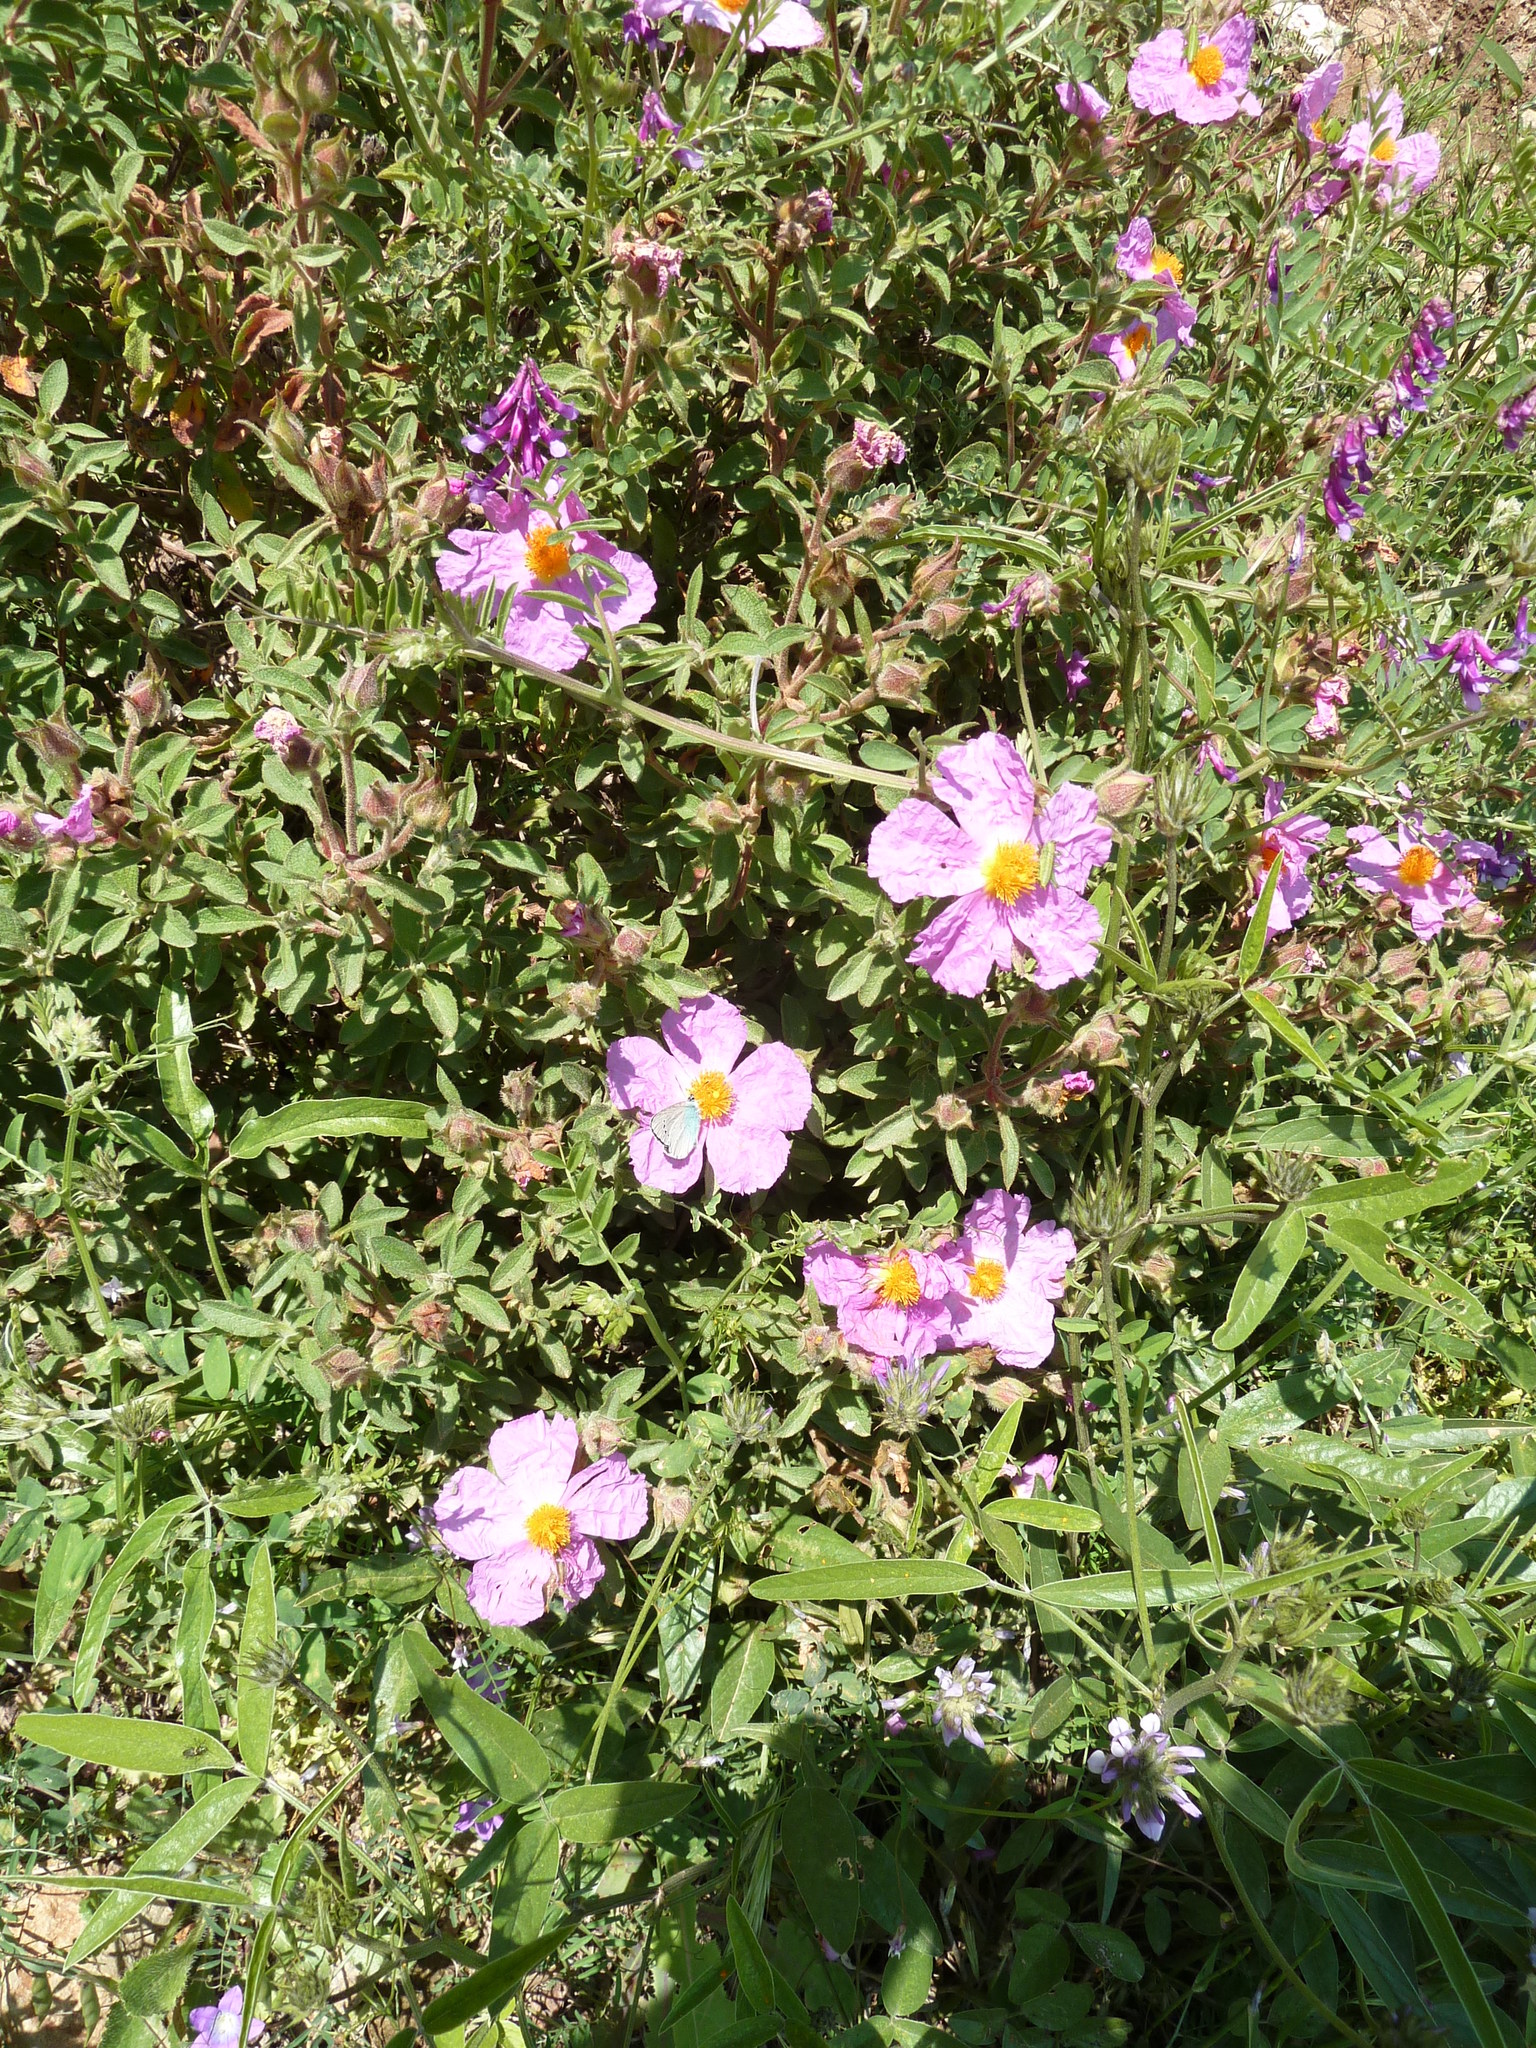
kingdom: Plantae
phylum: Tracheophyta
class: Magnoliopsida
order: Malvales
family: Cistaceae
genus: Cistus
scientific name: Cistus creticus
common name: Cretan rockrose
